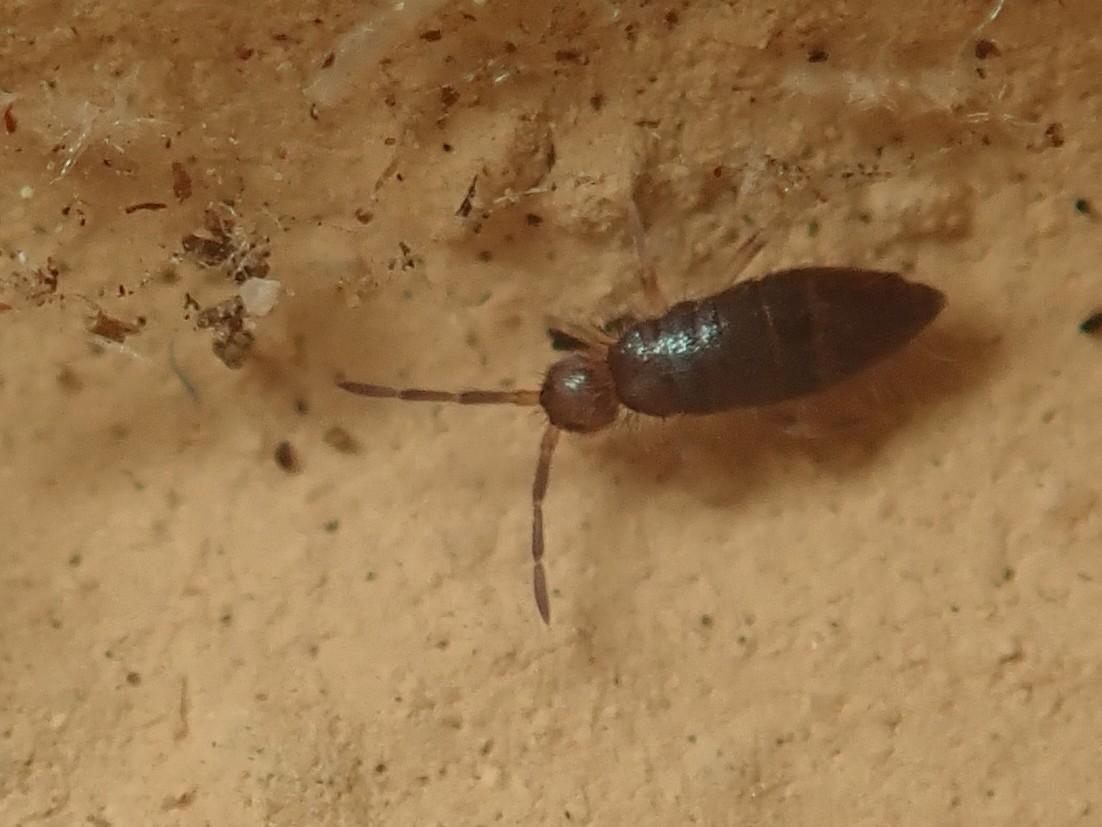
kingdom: Animalia
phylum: Arthropoda
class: Collembola
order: Entomobryomorpha
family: Entomobryidae
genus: Willowsia
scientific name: Willowsia buski
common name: Damp grain springtail
